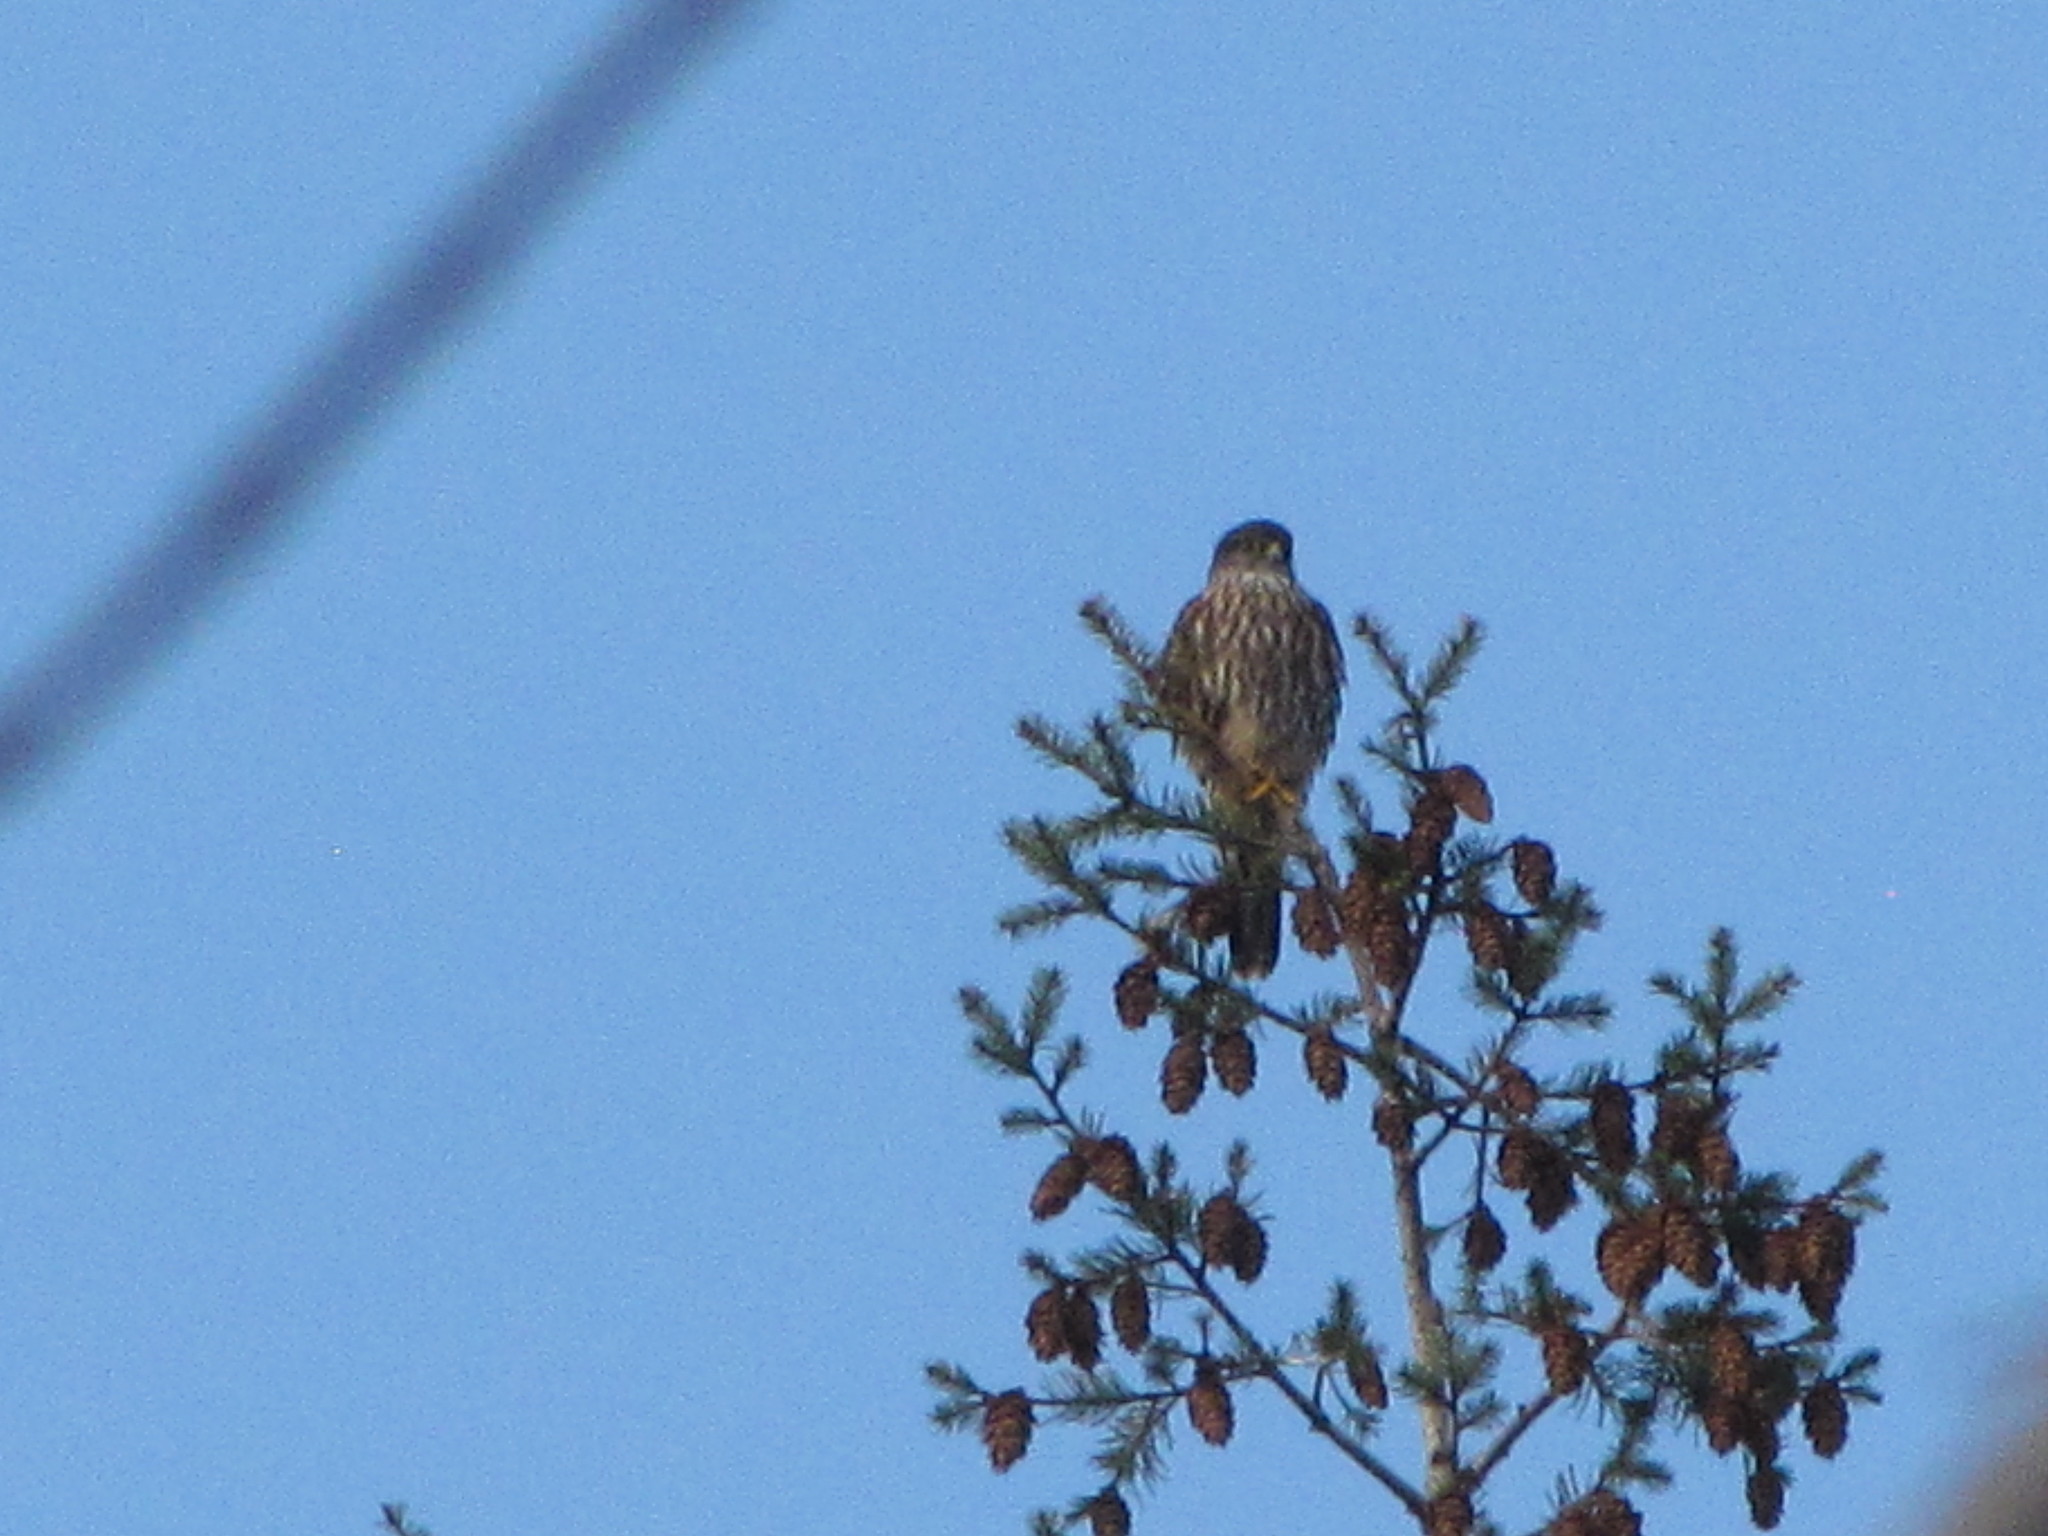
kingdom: Animalia
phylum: Chordata
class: Aves
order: Falconiformes
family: Falconidae
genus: Falco
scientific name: Falco columbarius
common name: Merlin
